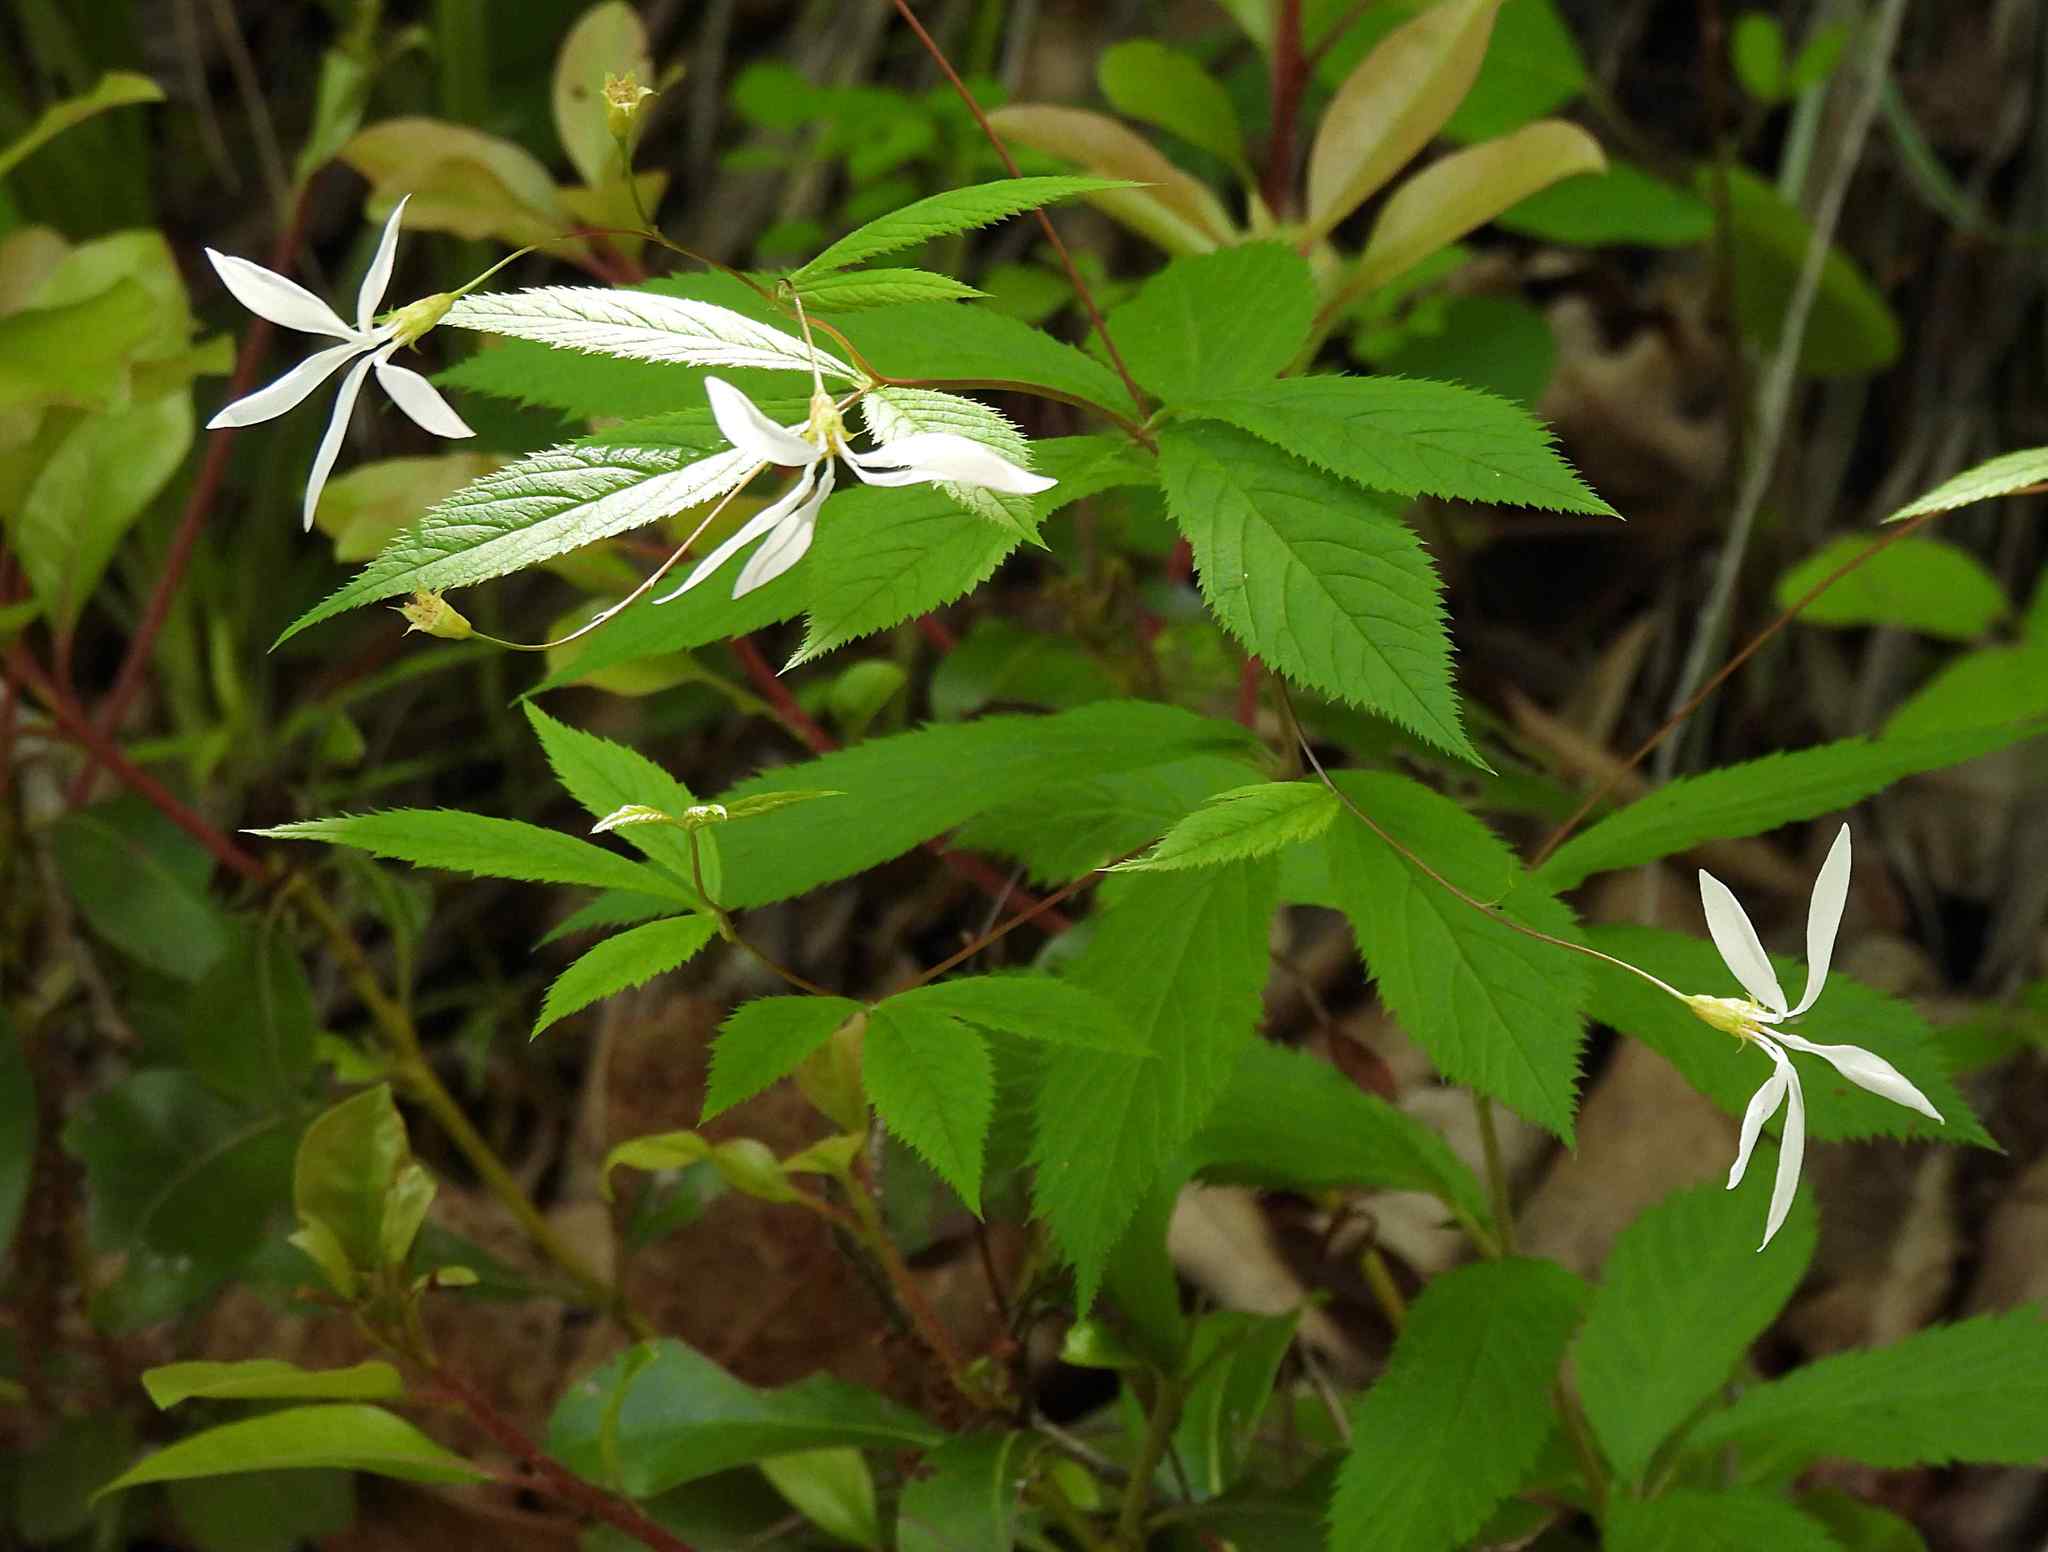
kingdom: Plantae
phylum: Tracheophyta
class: Magnoliopsida
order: Rosales
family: Rosaceae
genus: Gillenia
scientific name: Gillenia trifoliata
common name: Bowman's-root
